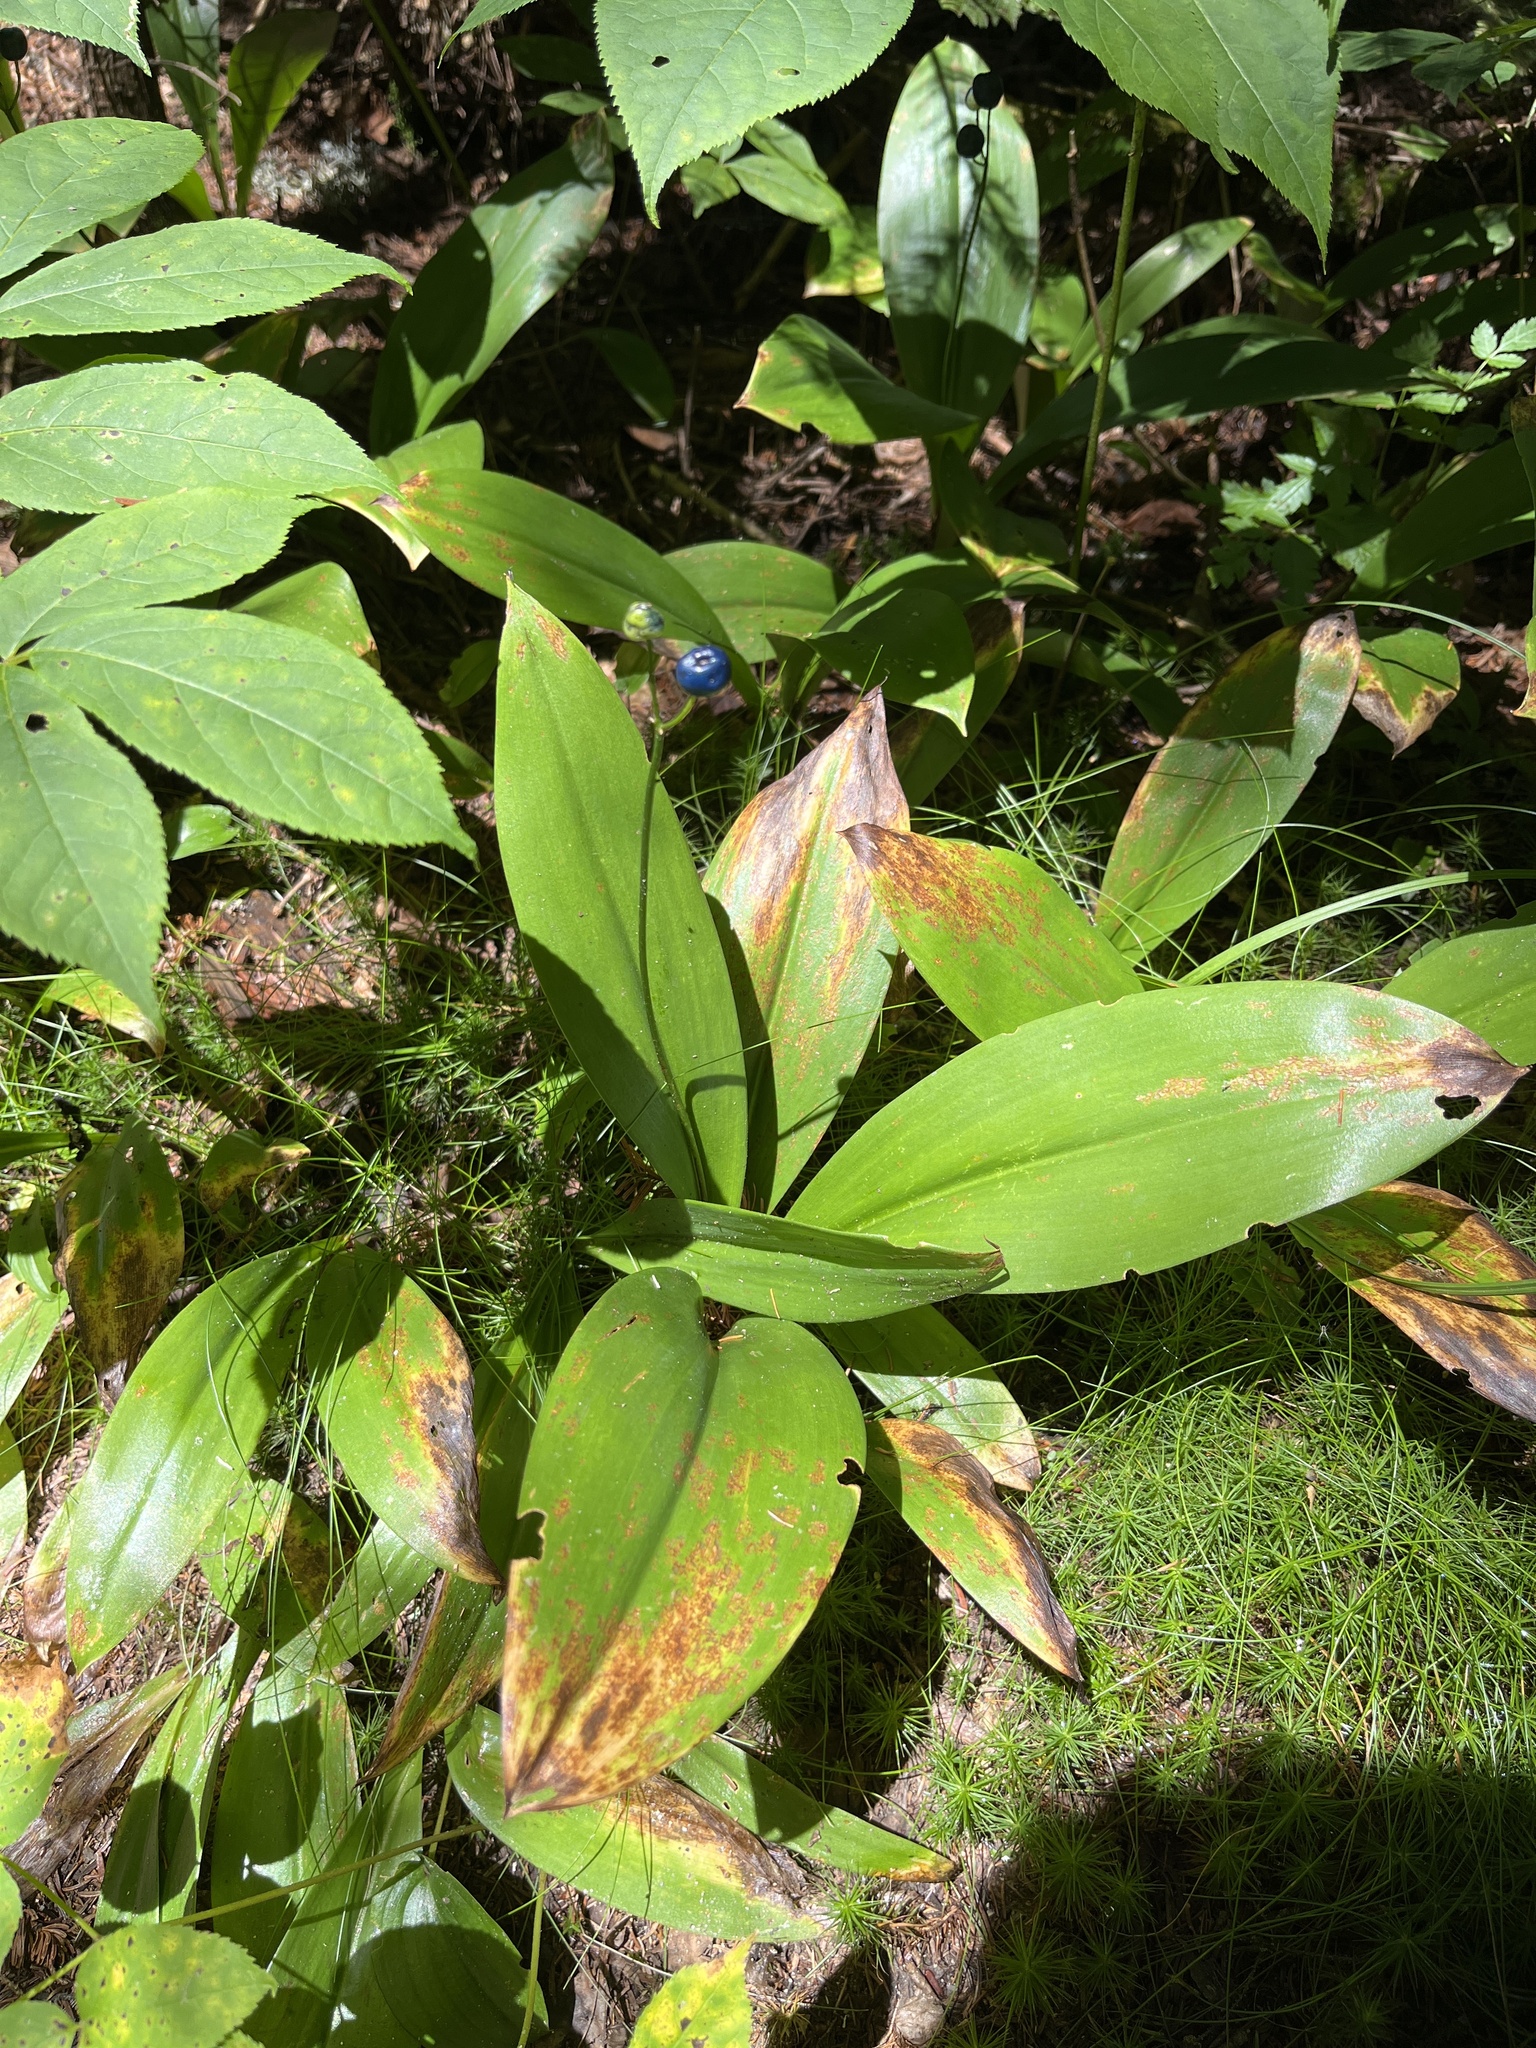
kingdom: Plantae
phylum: Tracheophyta
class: Liliopsida
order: Liliales
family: Liliaceae
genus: Clintonia
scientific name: Clintonia borealis
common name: Yellow clintonia
